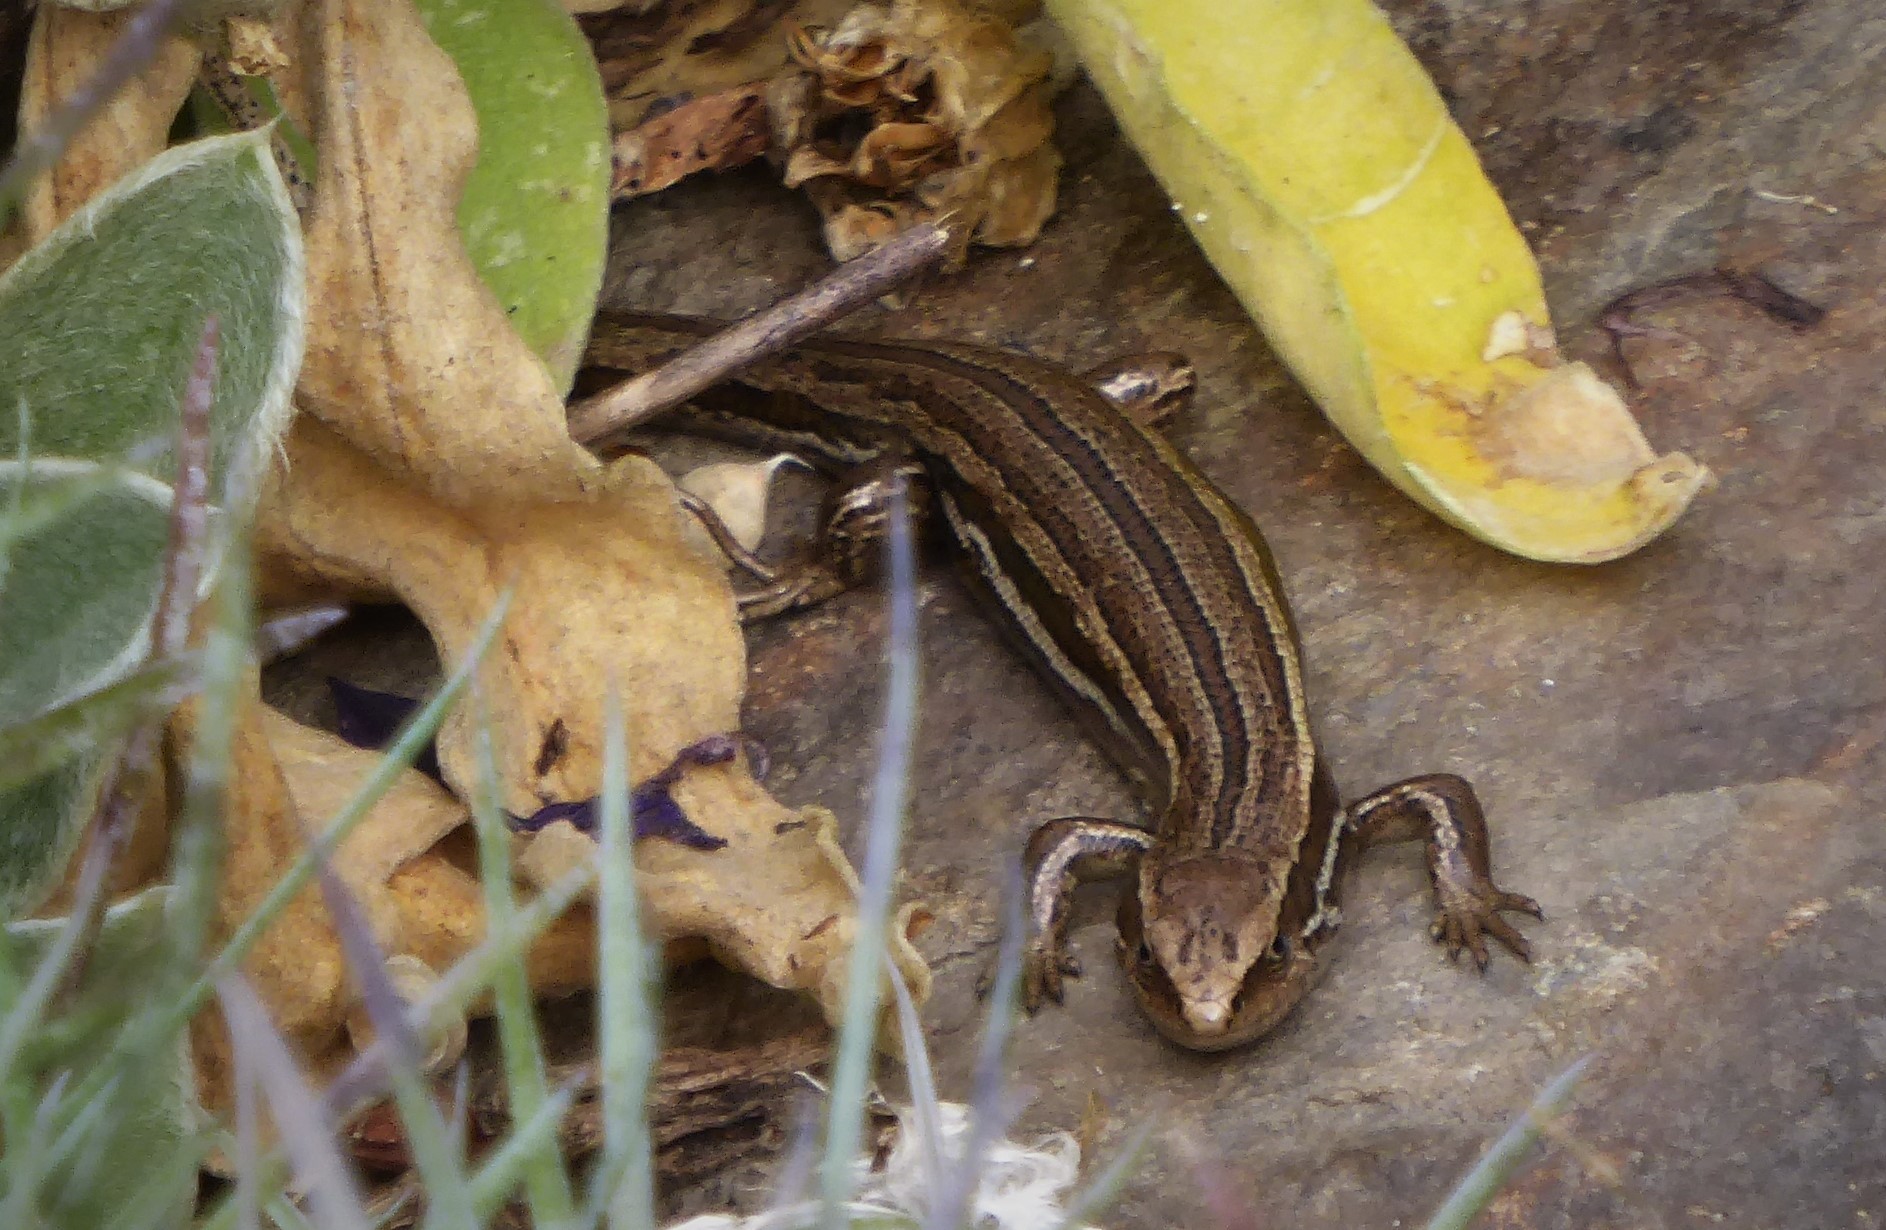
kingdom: Animalia
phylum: Chordata
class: Squamata
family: Scincidae
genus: Oligosoma
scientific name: Oligosoma polychroma
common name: Common new zealand skink
